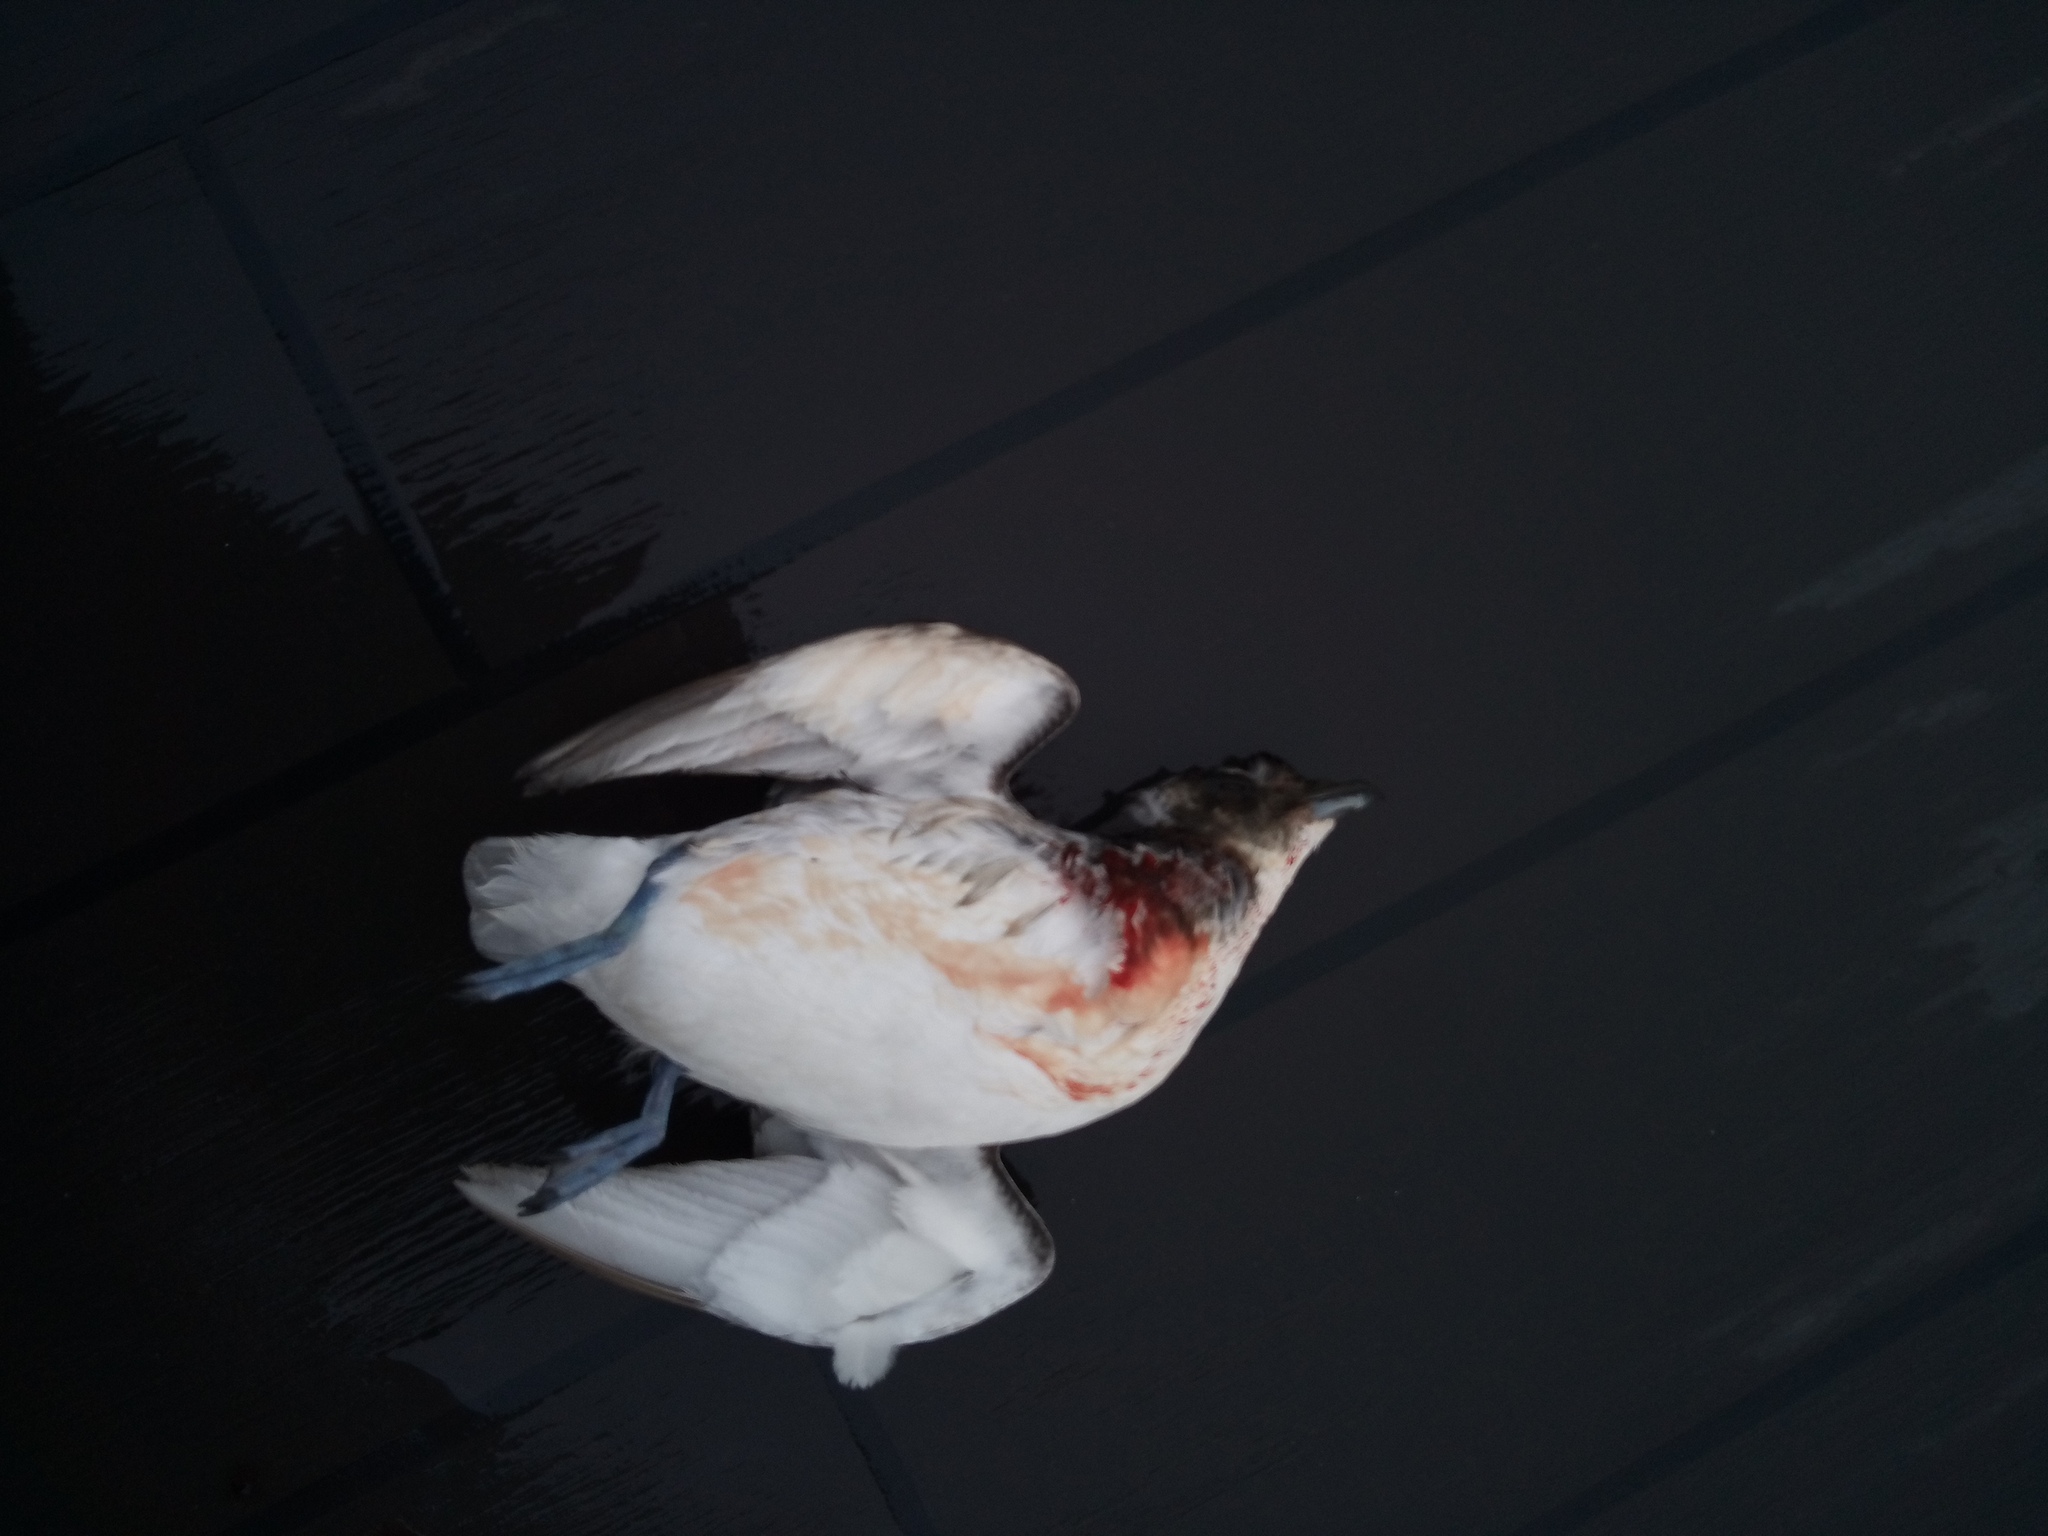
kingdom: Animalia
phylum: Chordata
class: Aves
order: Procellariiformes
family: Pelecanoididae
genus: Pelecanoides
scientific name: Pelecanoides georgicus
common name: South georgia diving-petrel
